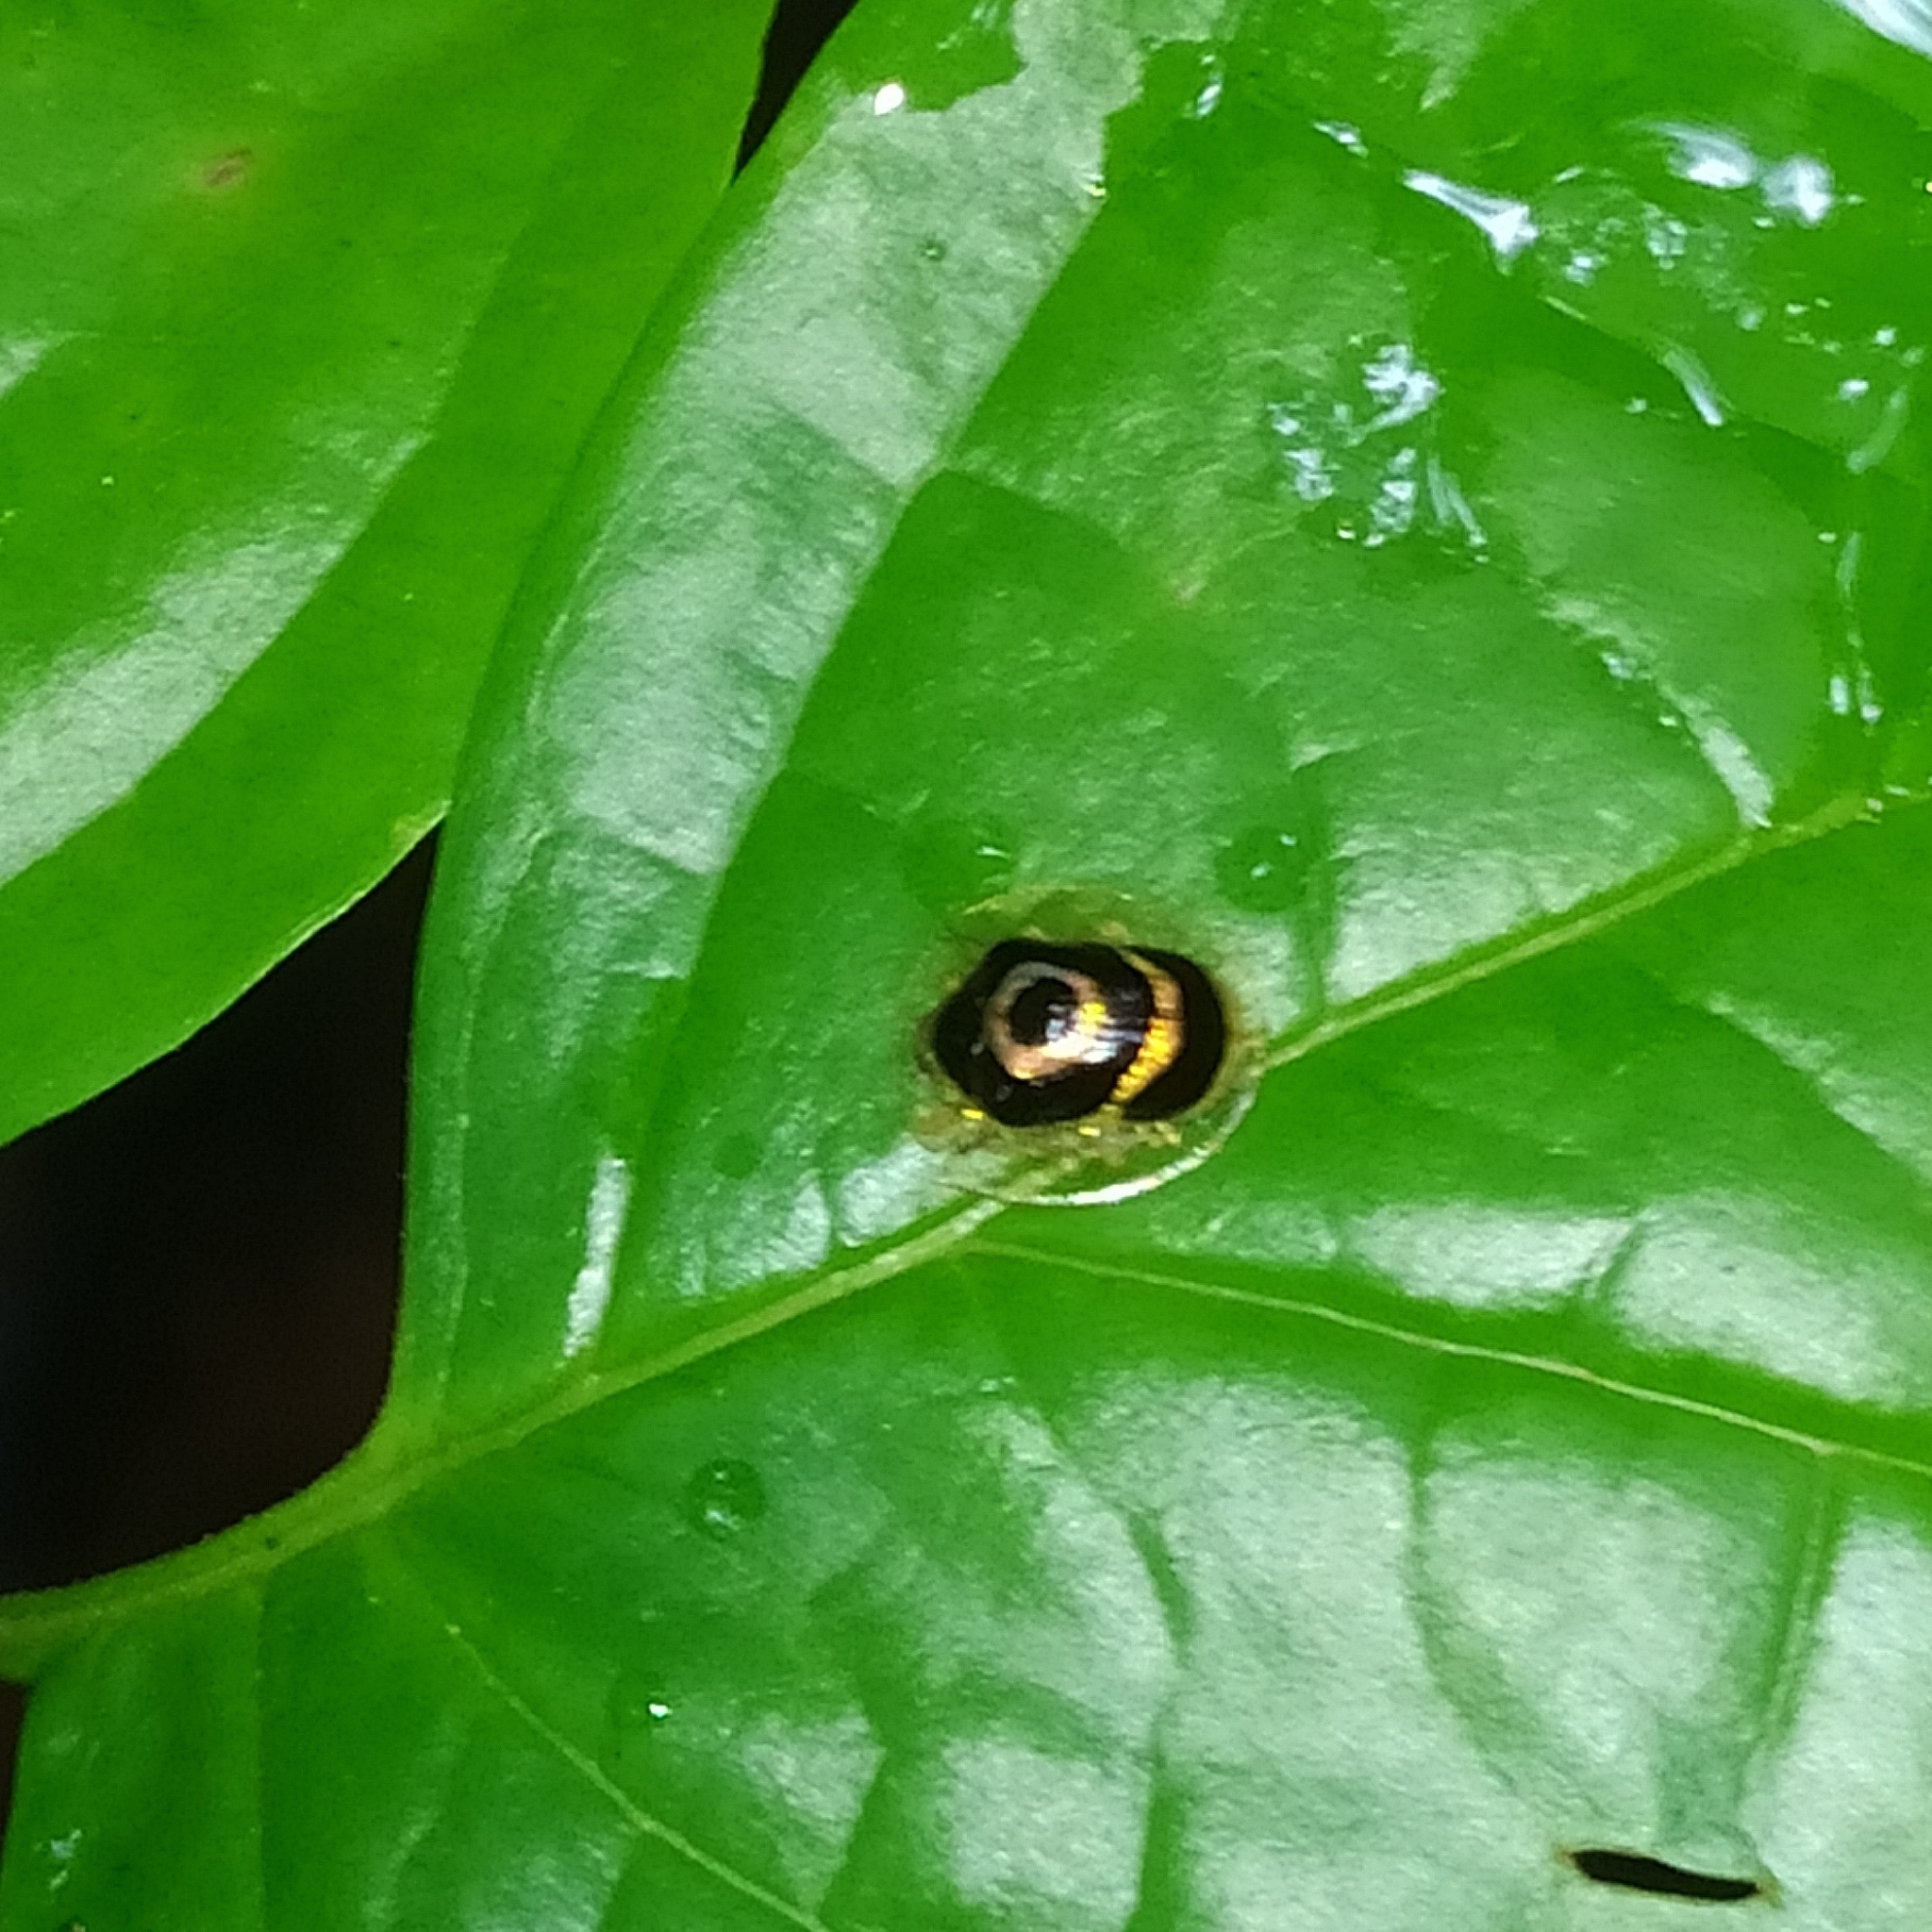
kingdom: Animalia
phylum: Arthropoda
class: Insecta
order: Coleoptera
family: Chrysomelidae
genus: Ischnocodia
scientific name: Ischnocodia annulus
